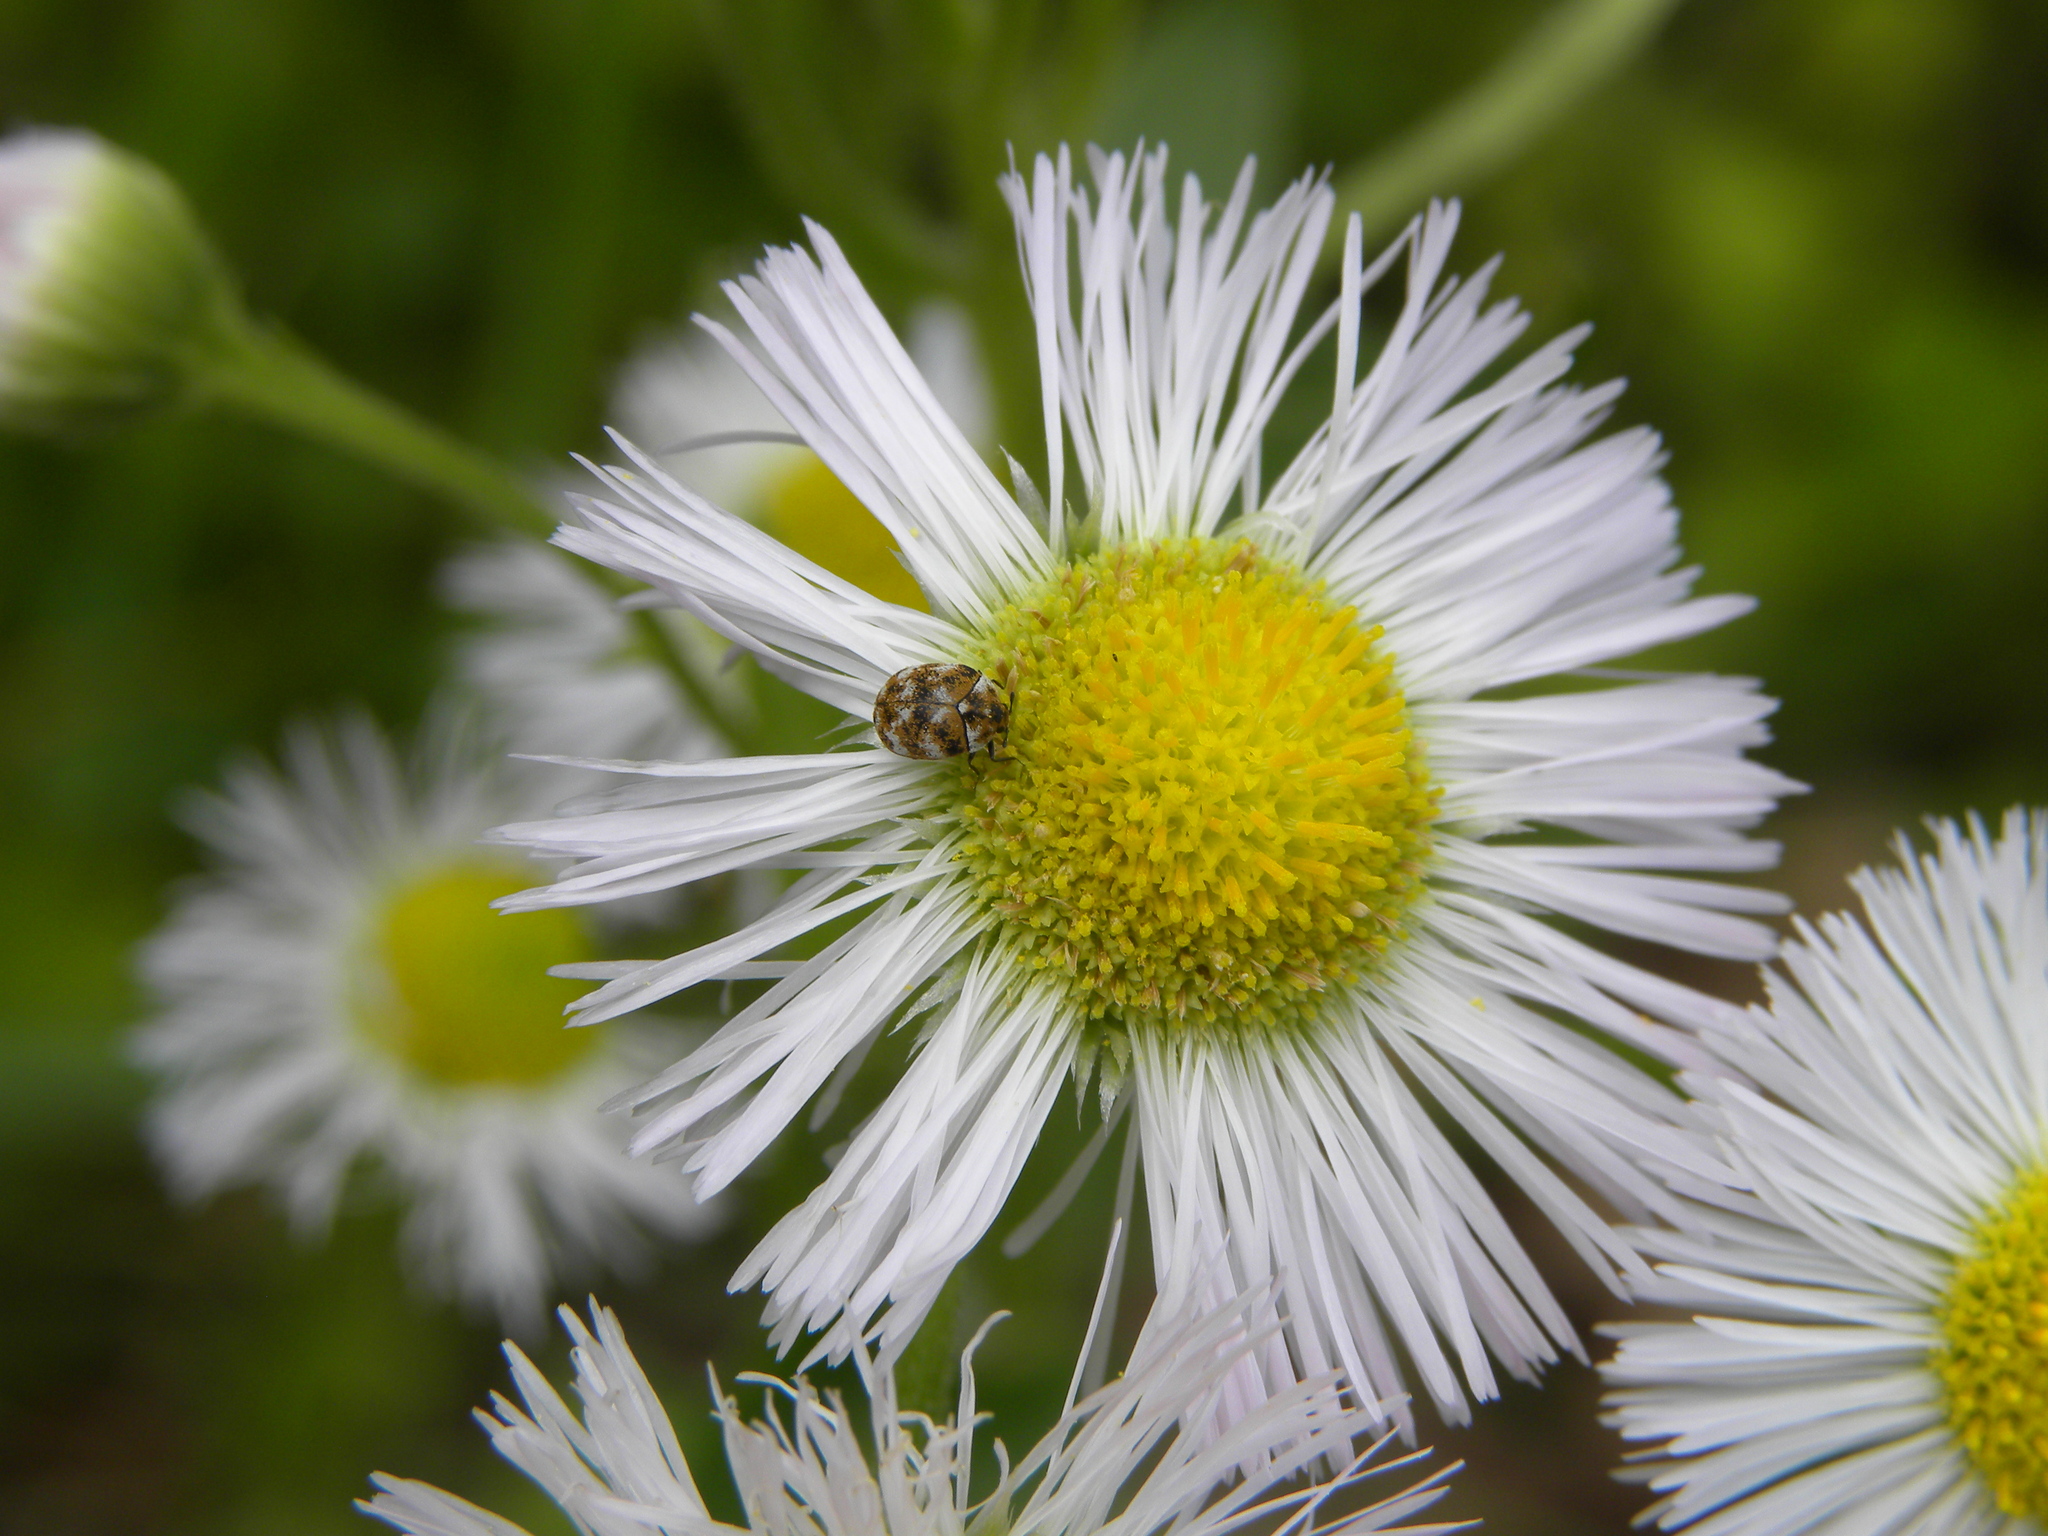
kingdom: Animalia
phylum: Arthropoda
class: Insecta
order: Coleoptera
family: Dermestidae
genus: Anthrenus
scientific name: Anthrenus verbasci
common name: Varied carpet beetle
